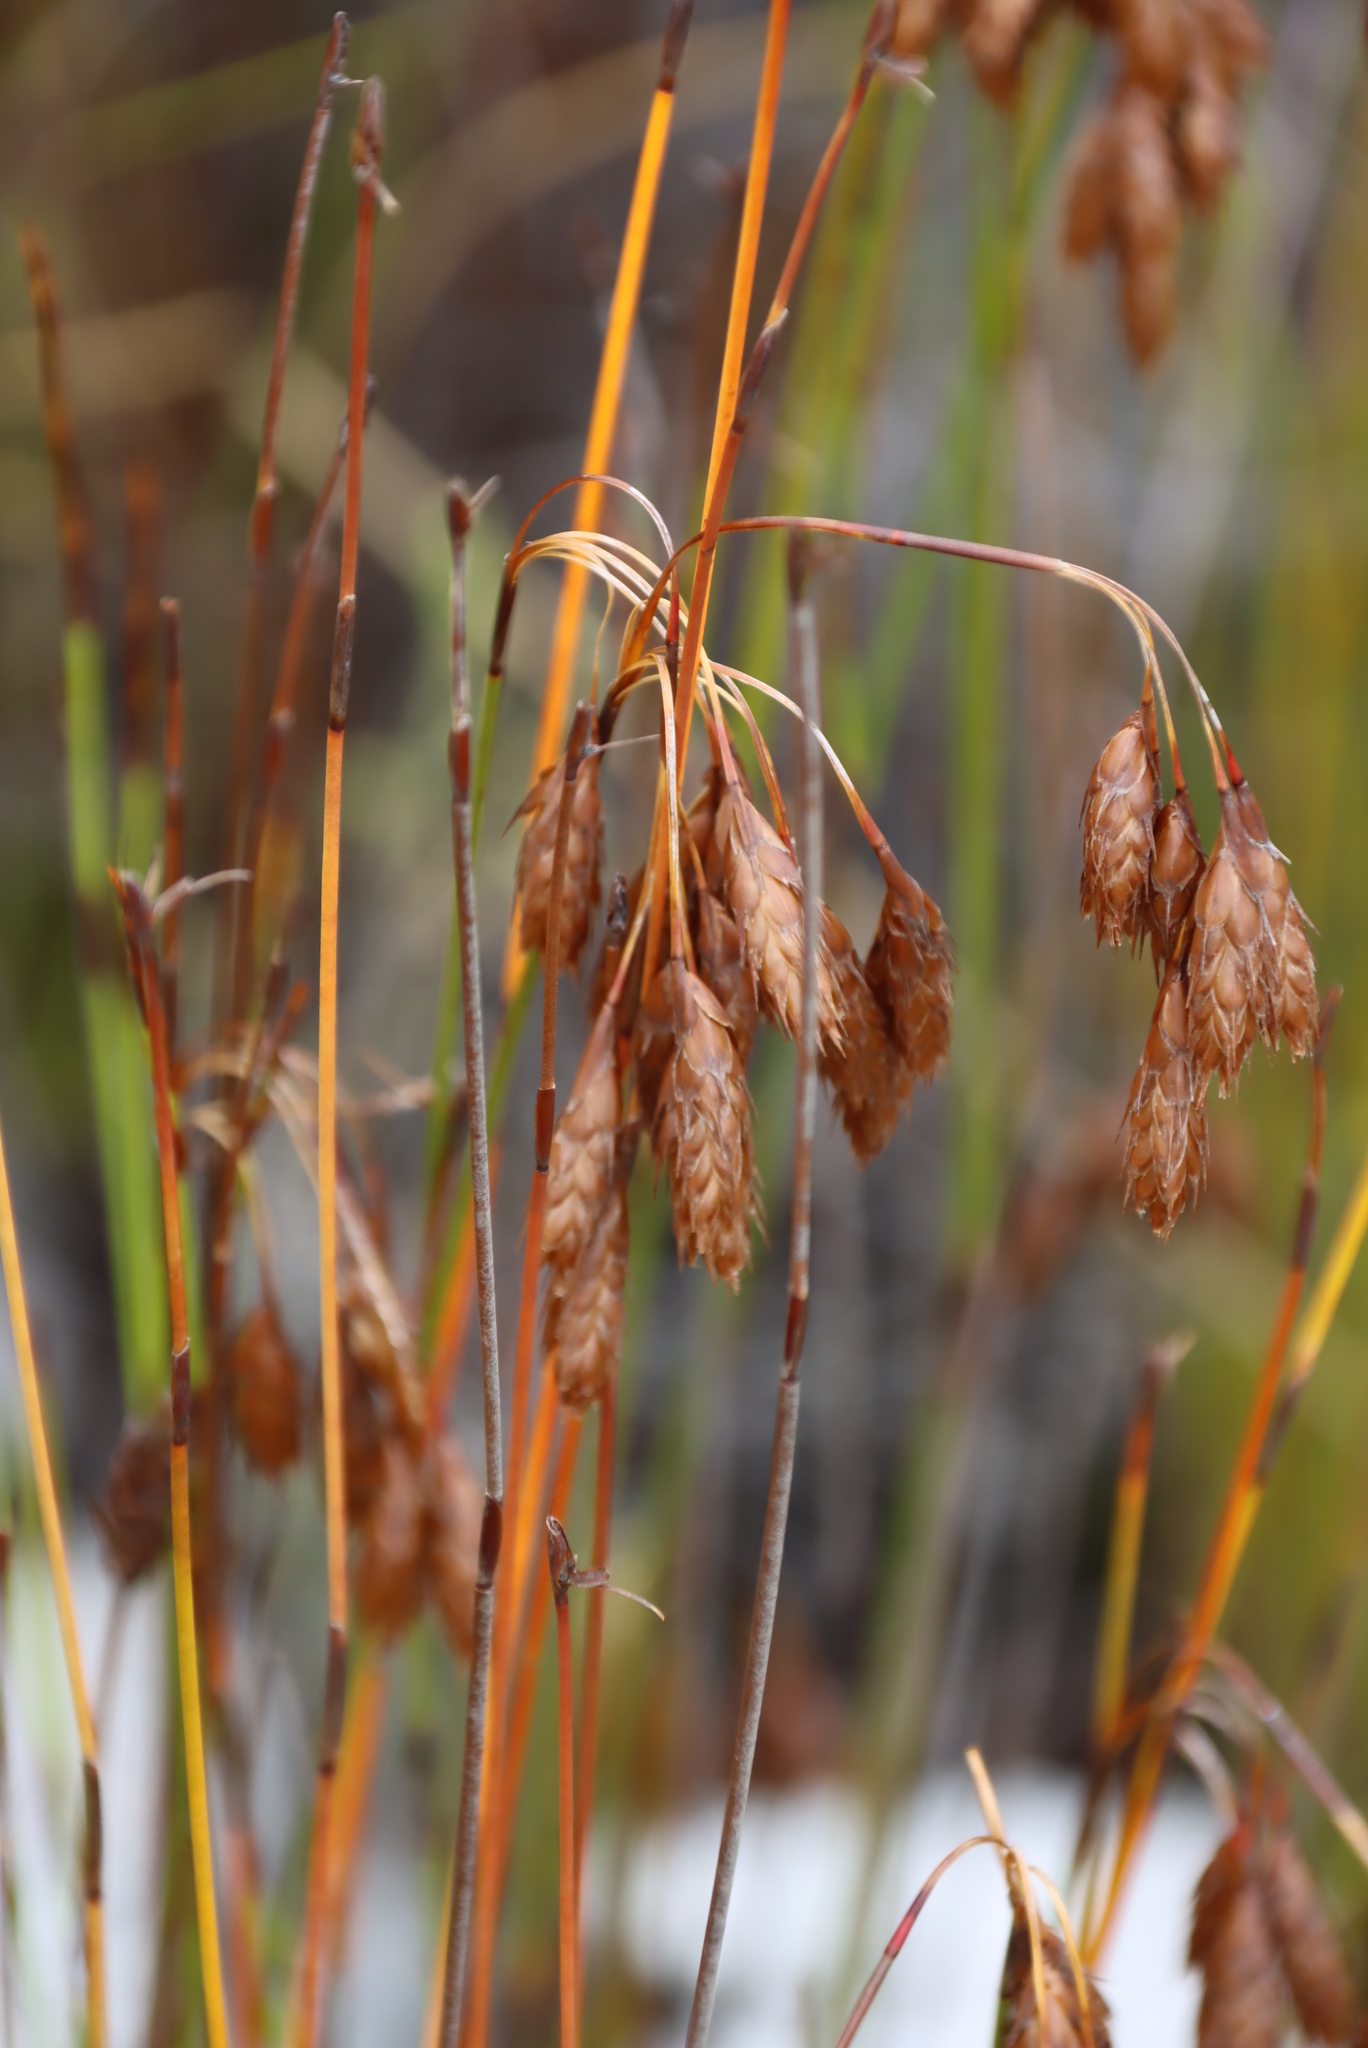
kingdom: Plantae
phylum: Tracheophyta
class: Liliopsida
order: Poales
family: Restionaceae
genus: Thamnochortus
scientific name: Thamnochortus pulcher
